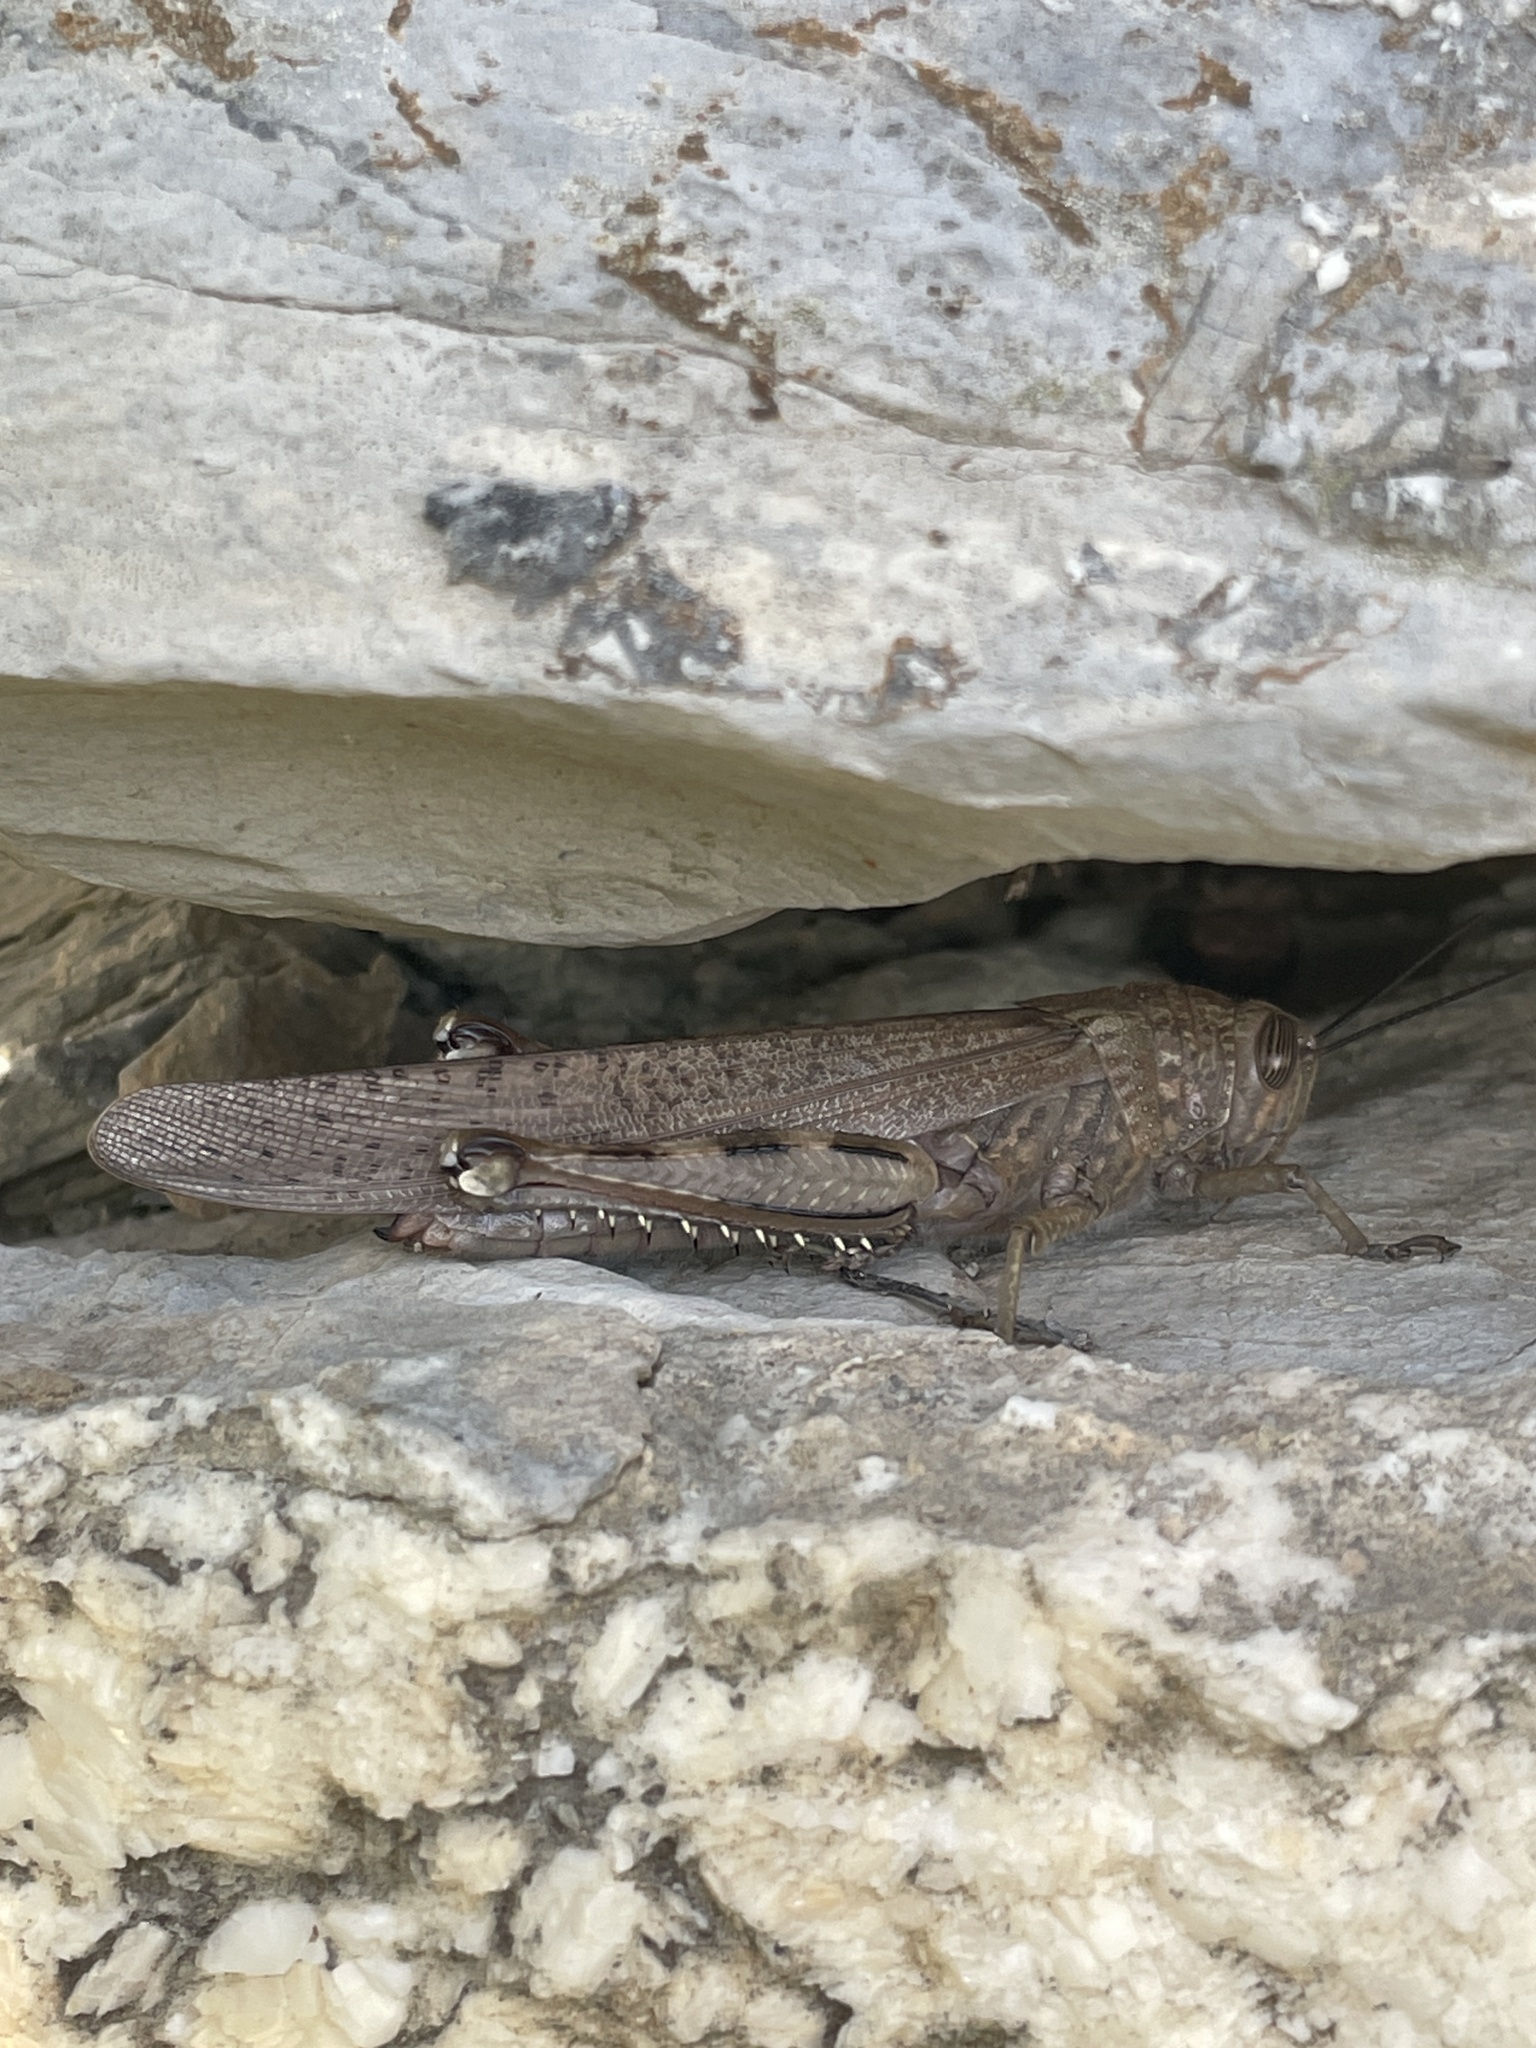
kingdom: Animalia
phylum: Arthropoda
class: Insecta
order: Orthoptera
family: Acrididae
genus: Anacridium
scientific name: Anacridium aegyptium
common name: Egyptian grasshopper
